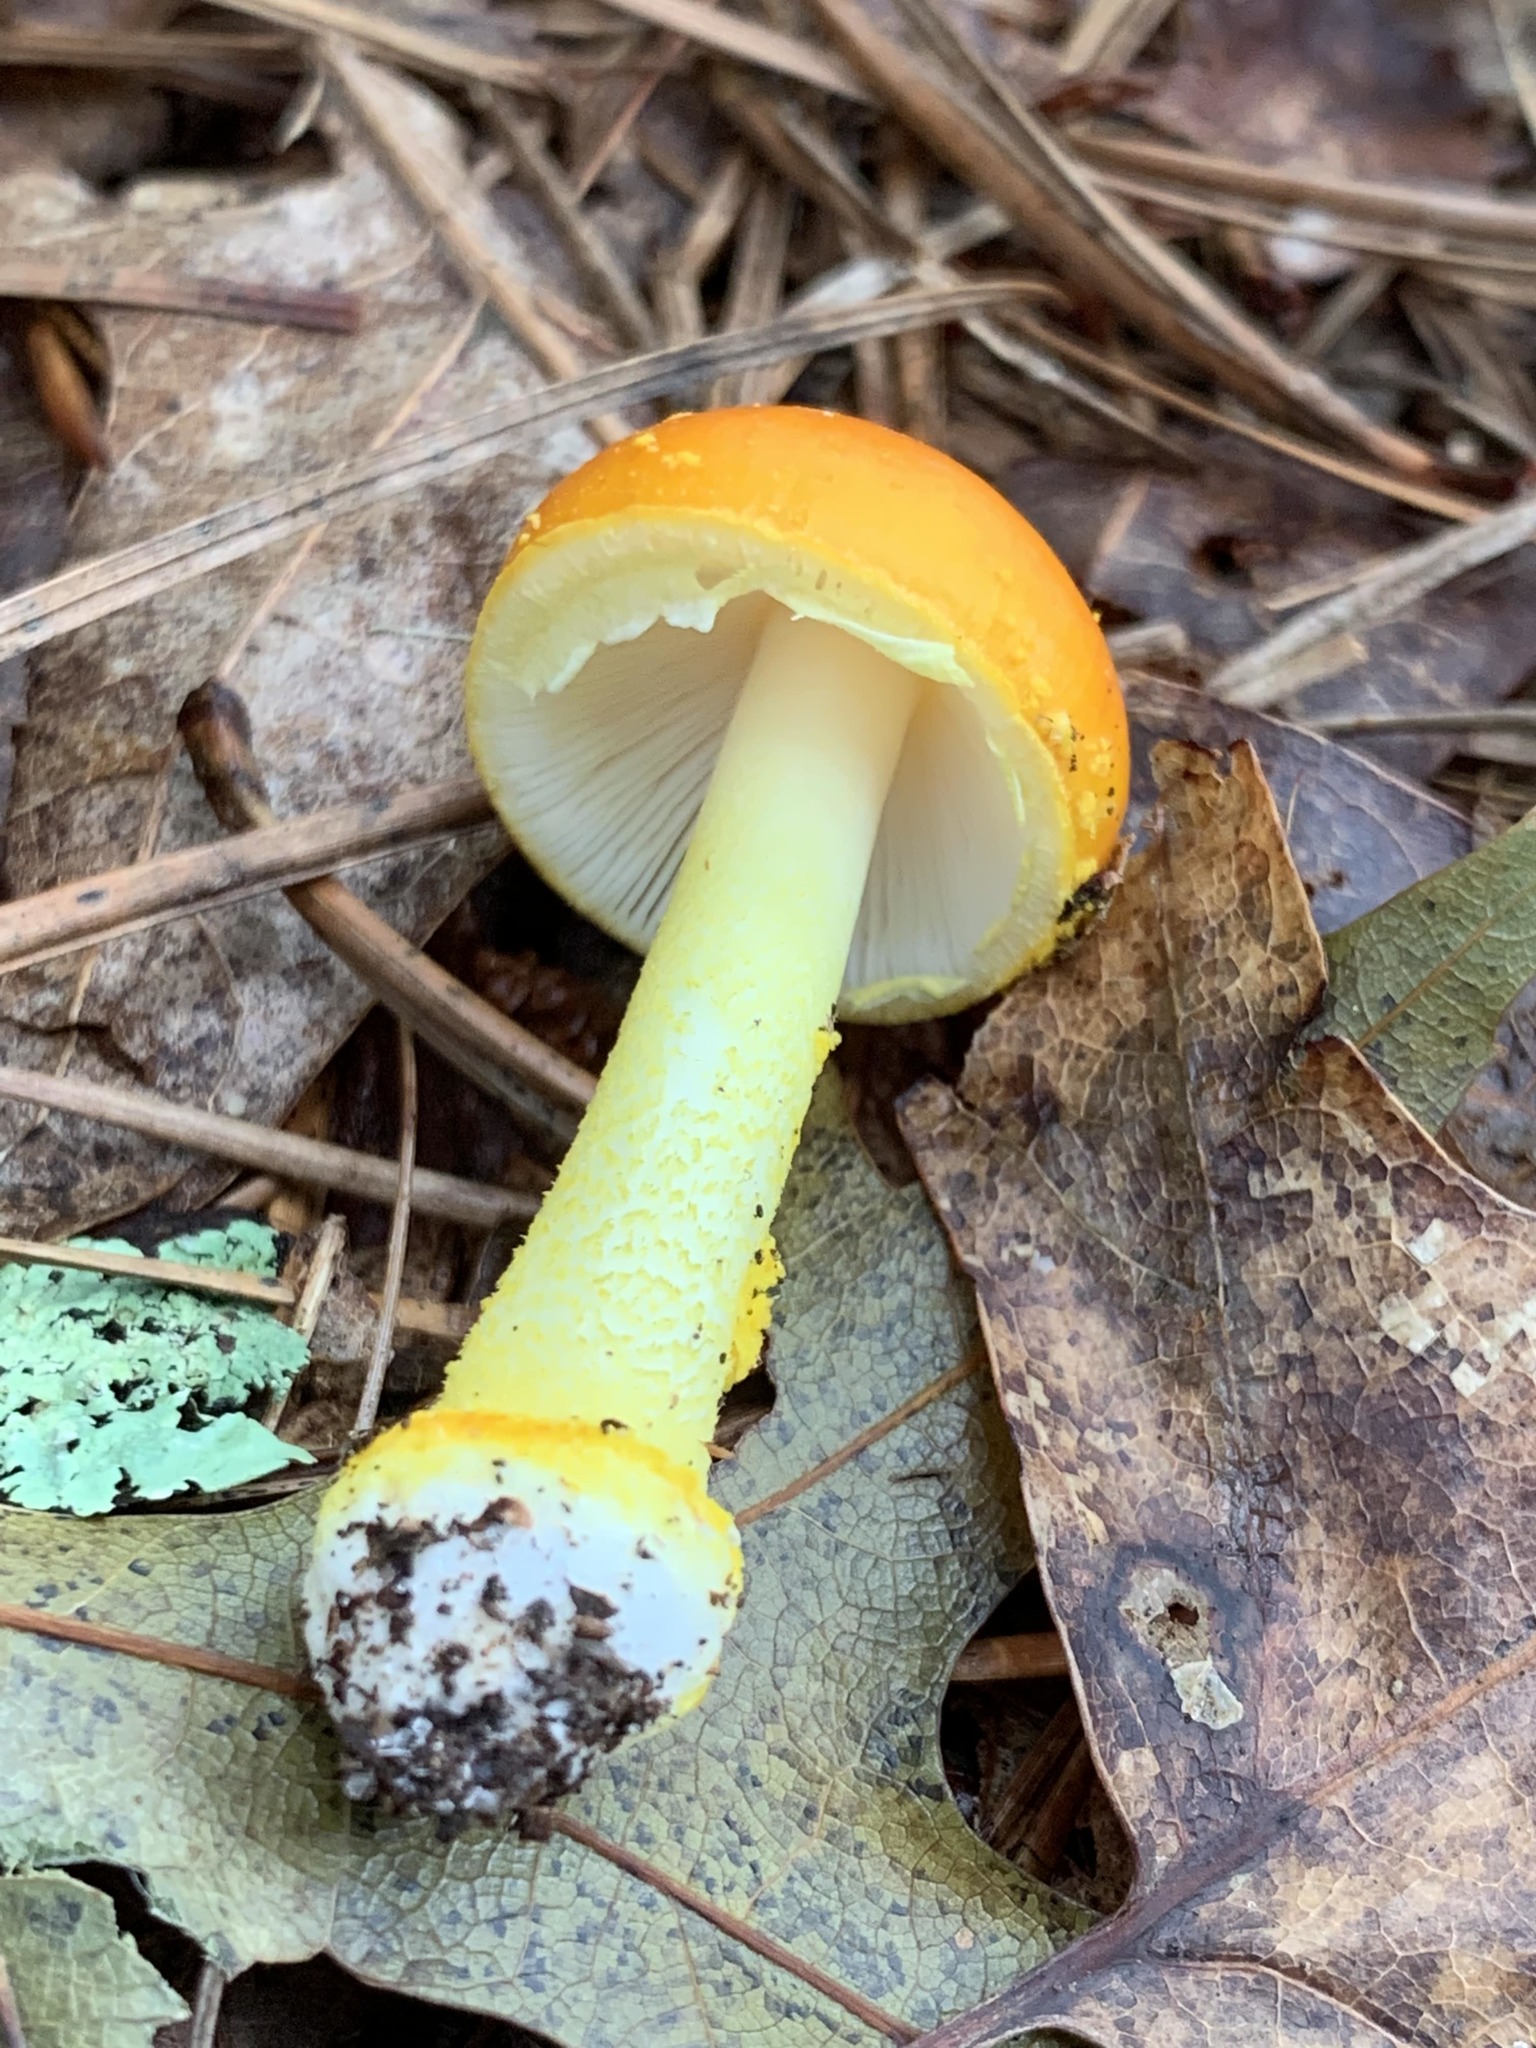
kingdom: Fungi
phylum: Basidiomycota
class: Agaricomycetes
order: Agaricales
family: Amanitaceae
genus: Amanita
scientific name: Amanita flavoconia
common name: Yellow patches
